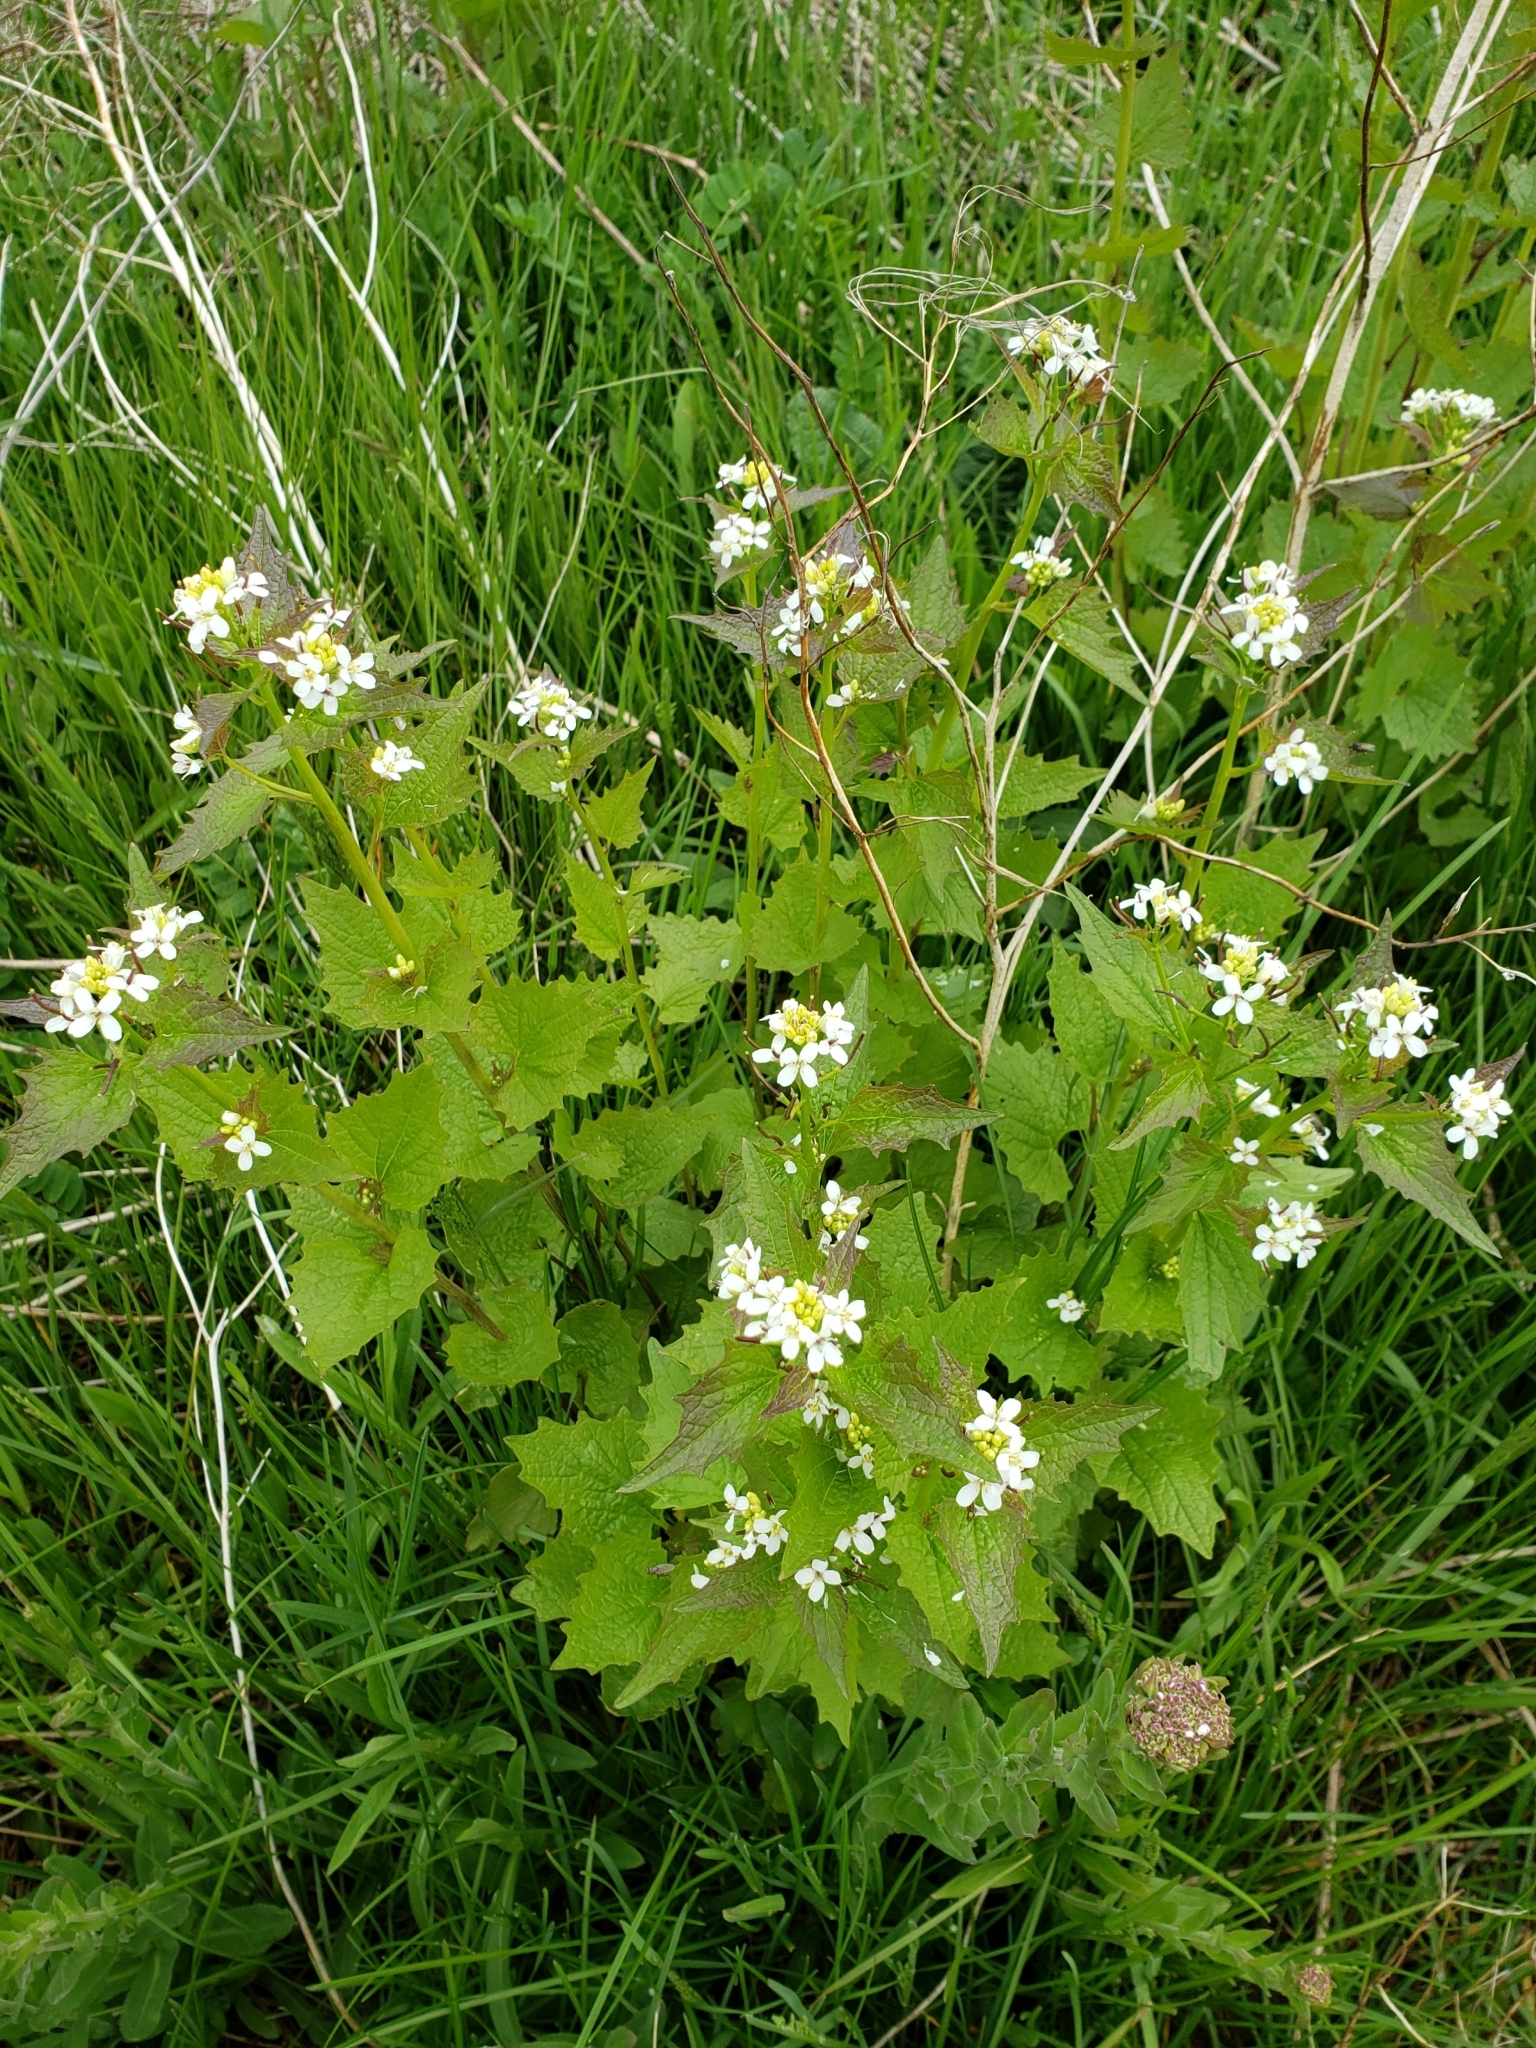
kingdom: Plantae
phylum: Tracheophyta
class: Magnoliopsida
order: Brassicales
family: Brassicaceae
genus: Alliaria
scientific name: Alliaria petiolata
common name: Garlic mustard
